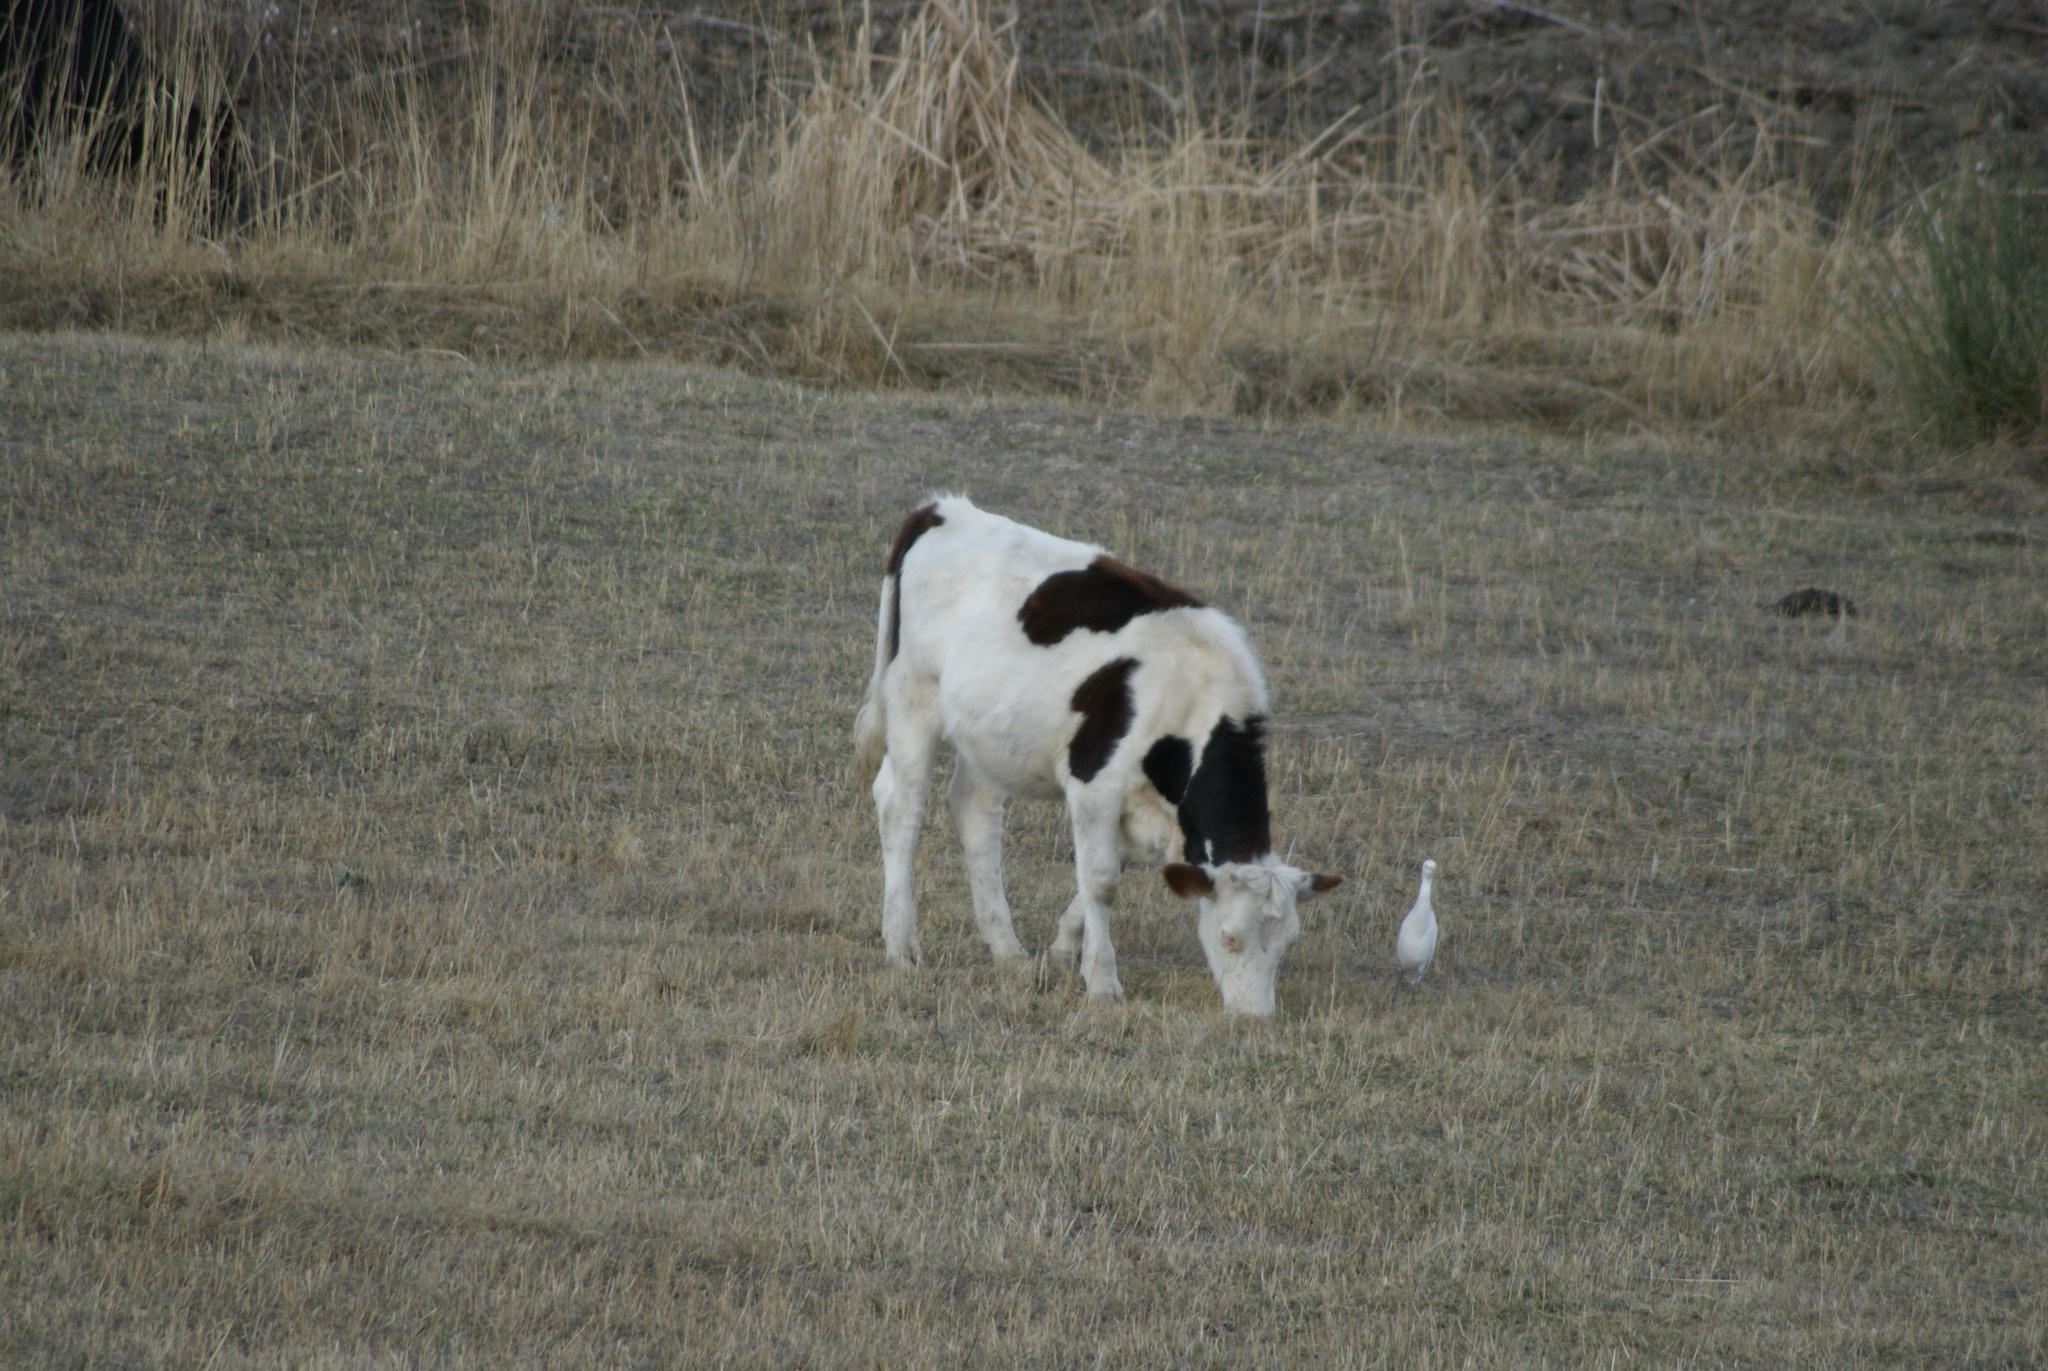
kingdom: Animalia
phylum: Chordata
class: Aves
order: Pelecaniformes
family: Ardeidae
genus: Bubulcus
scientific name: Bubulcus ibis
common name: Cattle egret
